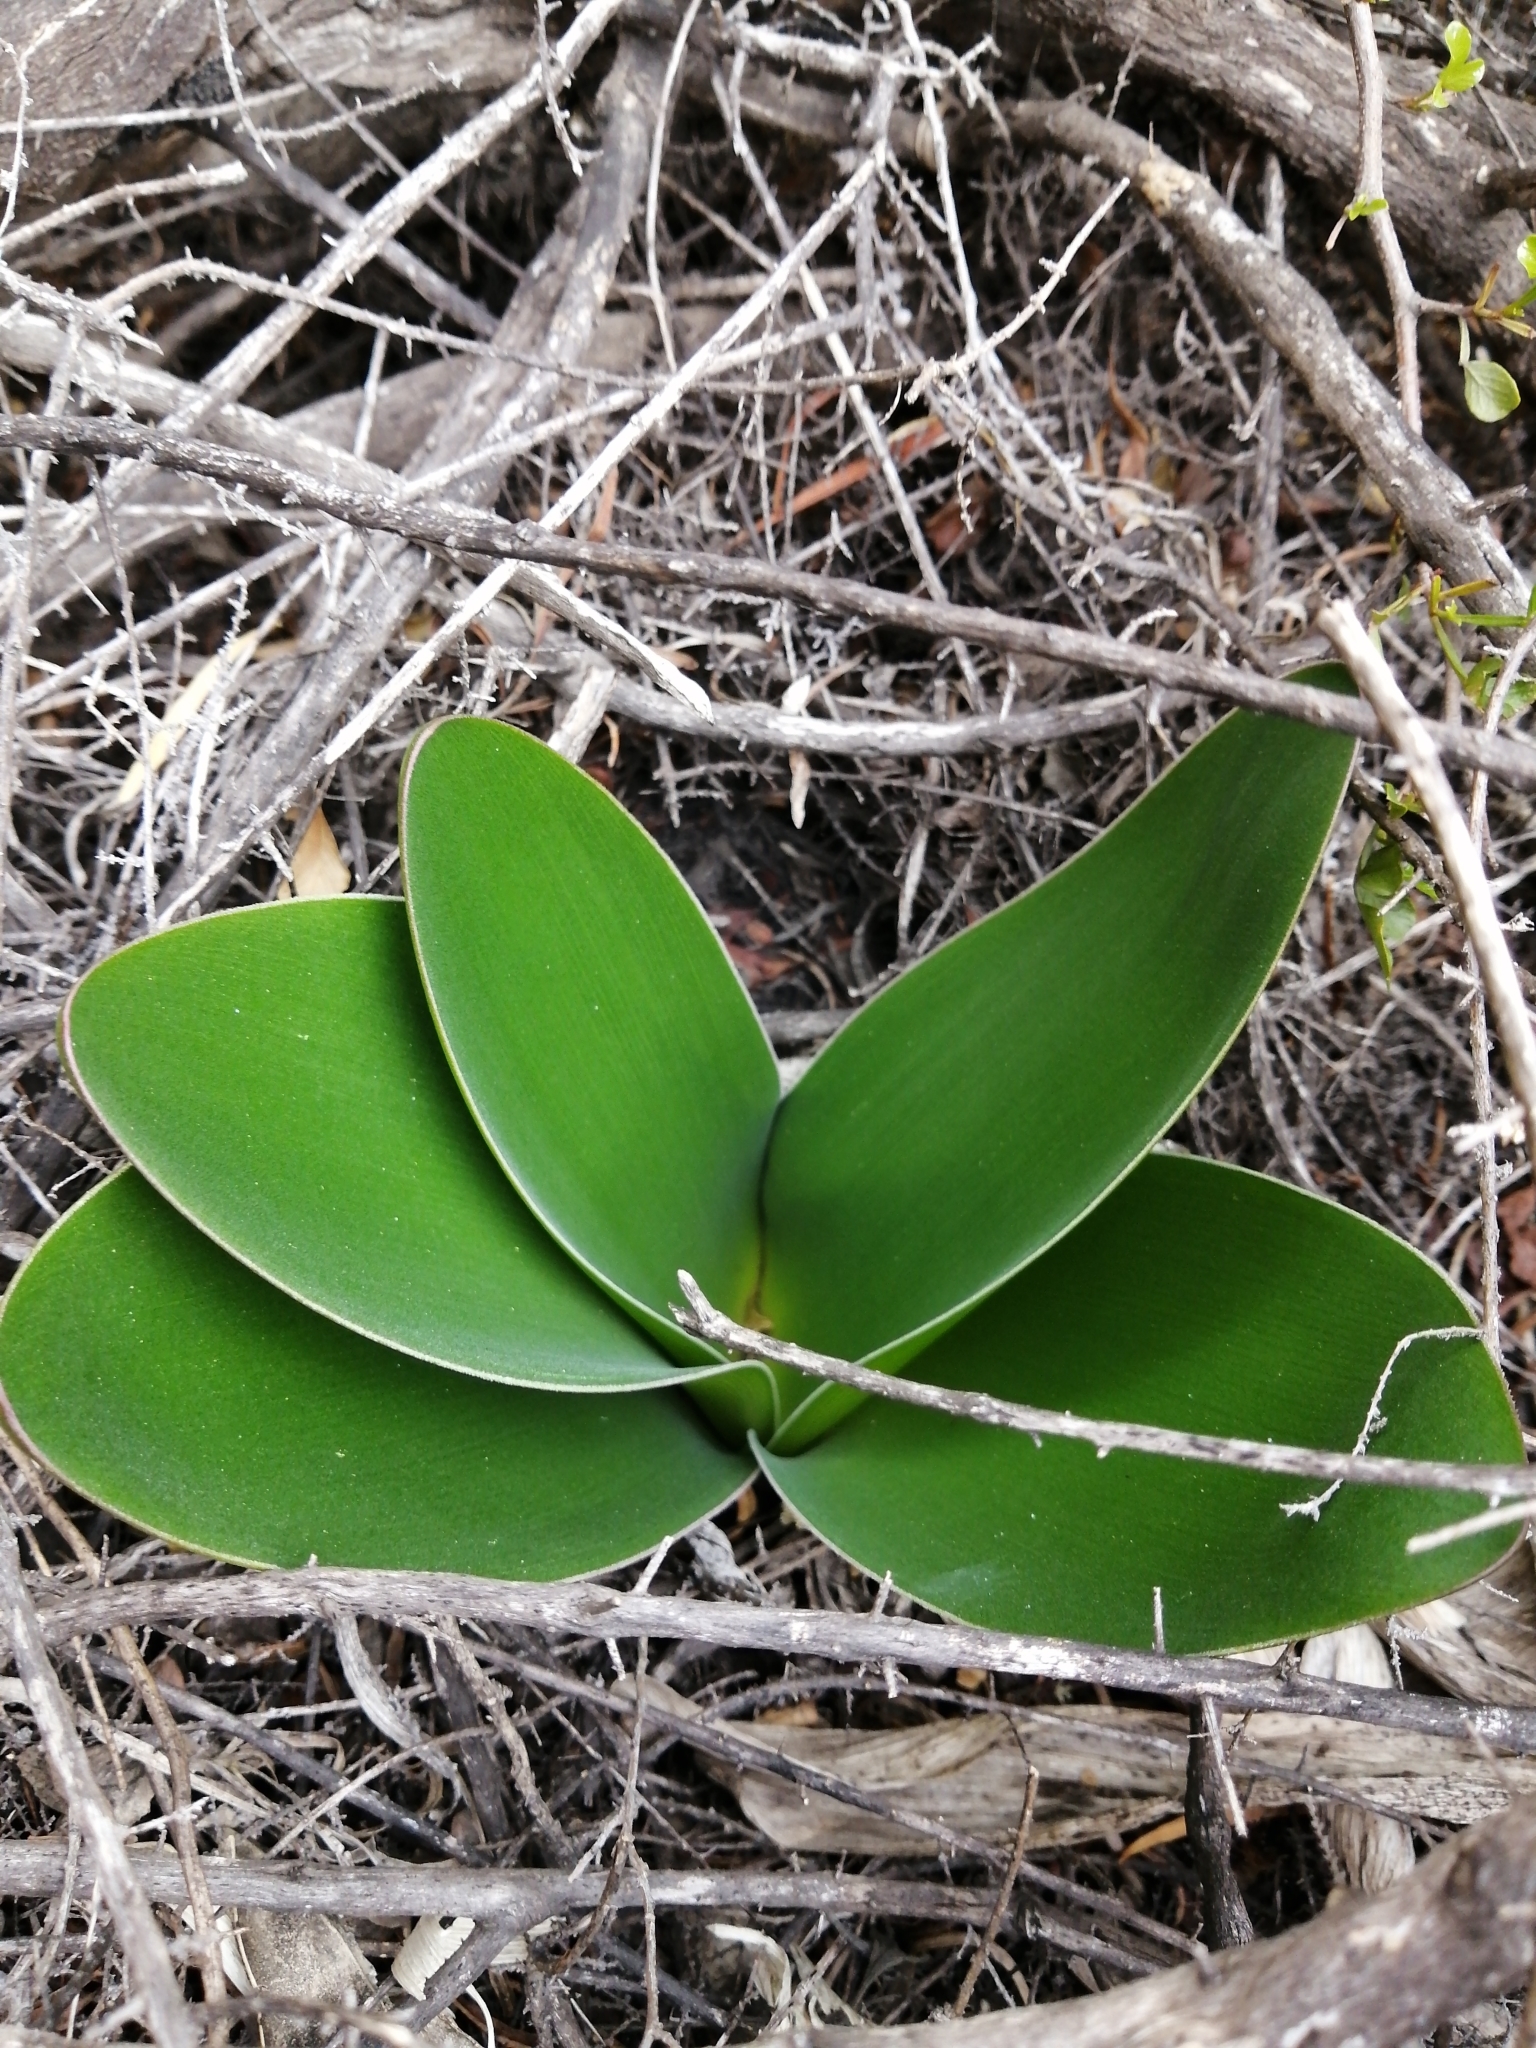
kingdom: Plantae
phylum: Tracheophyta
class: Liliopsida
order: Asparagales
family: Amaryllidaceae
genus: Haemanthus
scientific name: Haemanthus coccineus
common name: Cape-tulip
